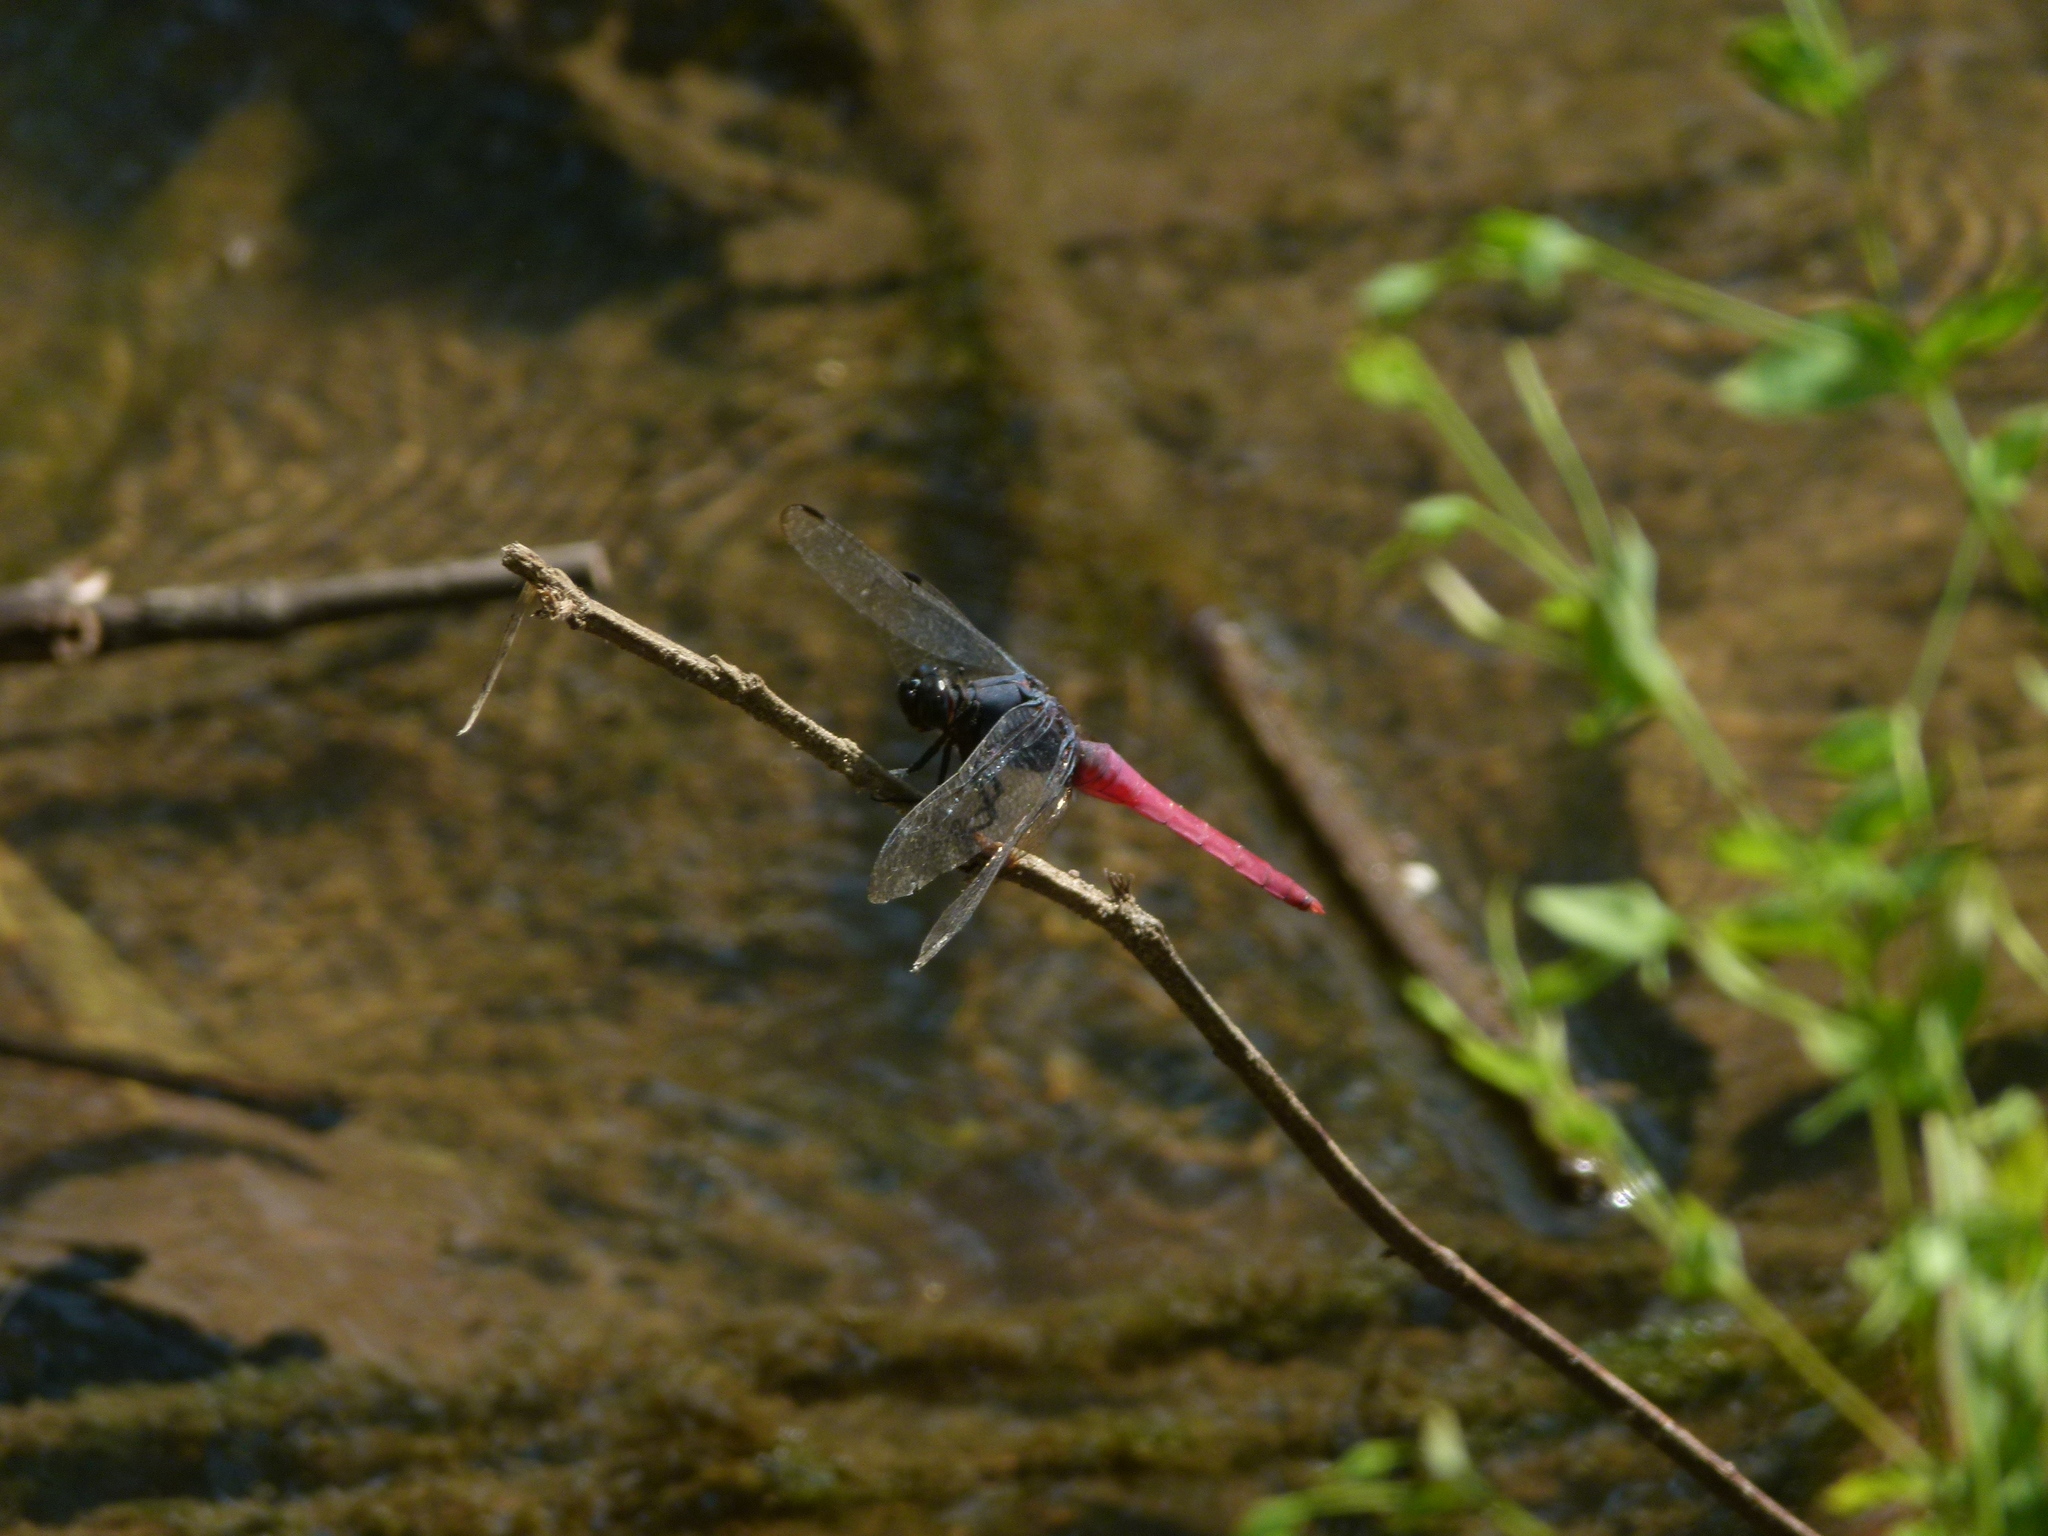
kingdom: Animalia
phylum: Arthropoda
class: Insecta
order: Odonata
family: Libellulidae
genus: Orthetrum
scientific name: Orthetrum pruinosum
